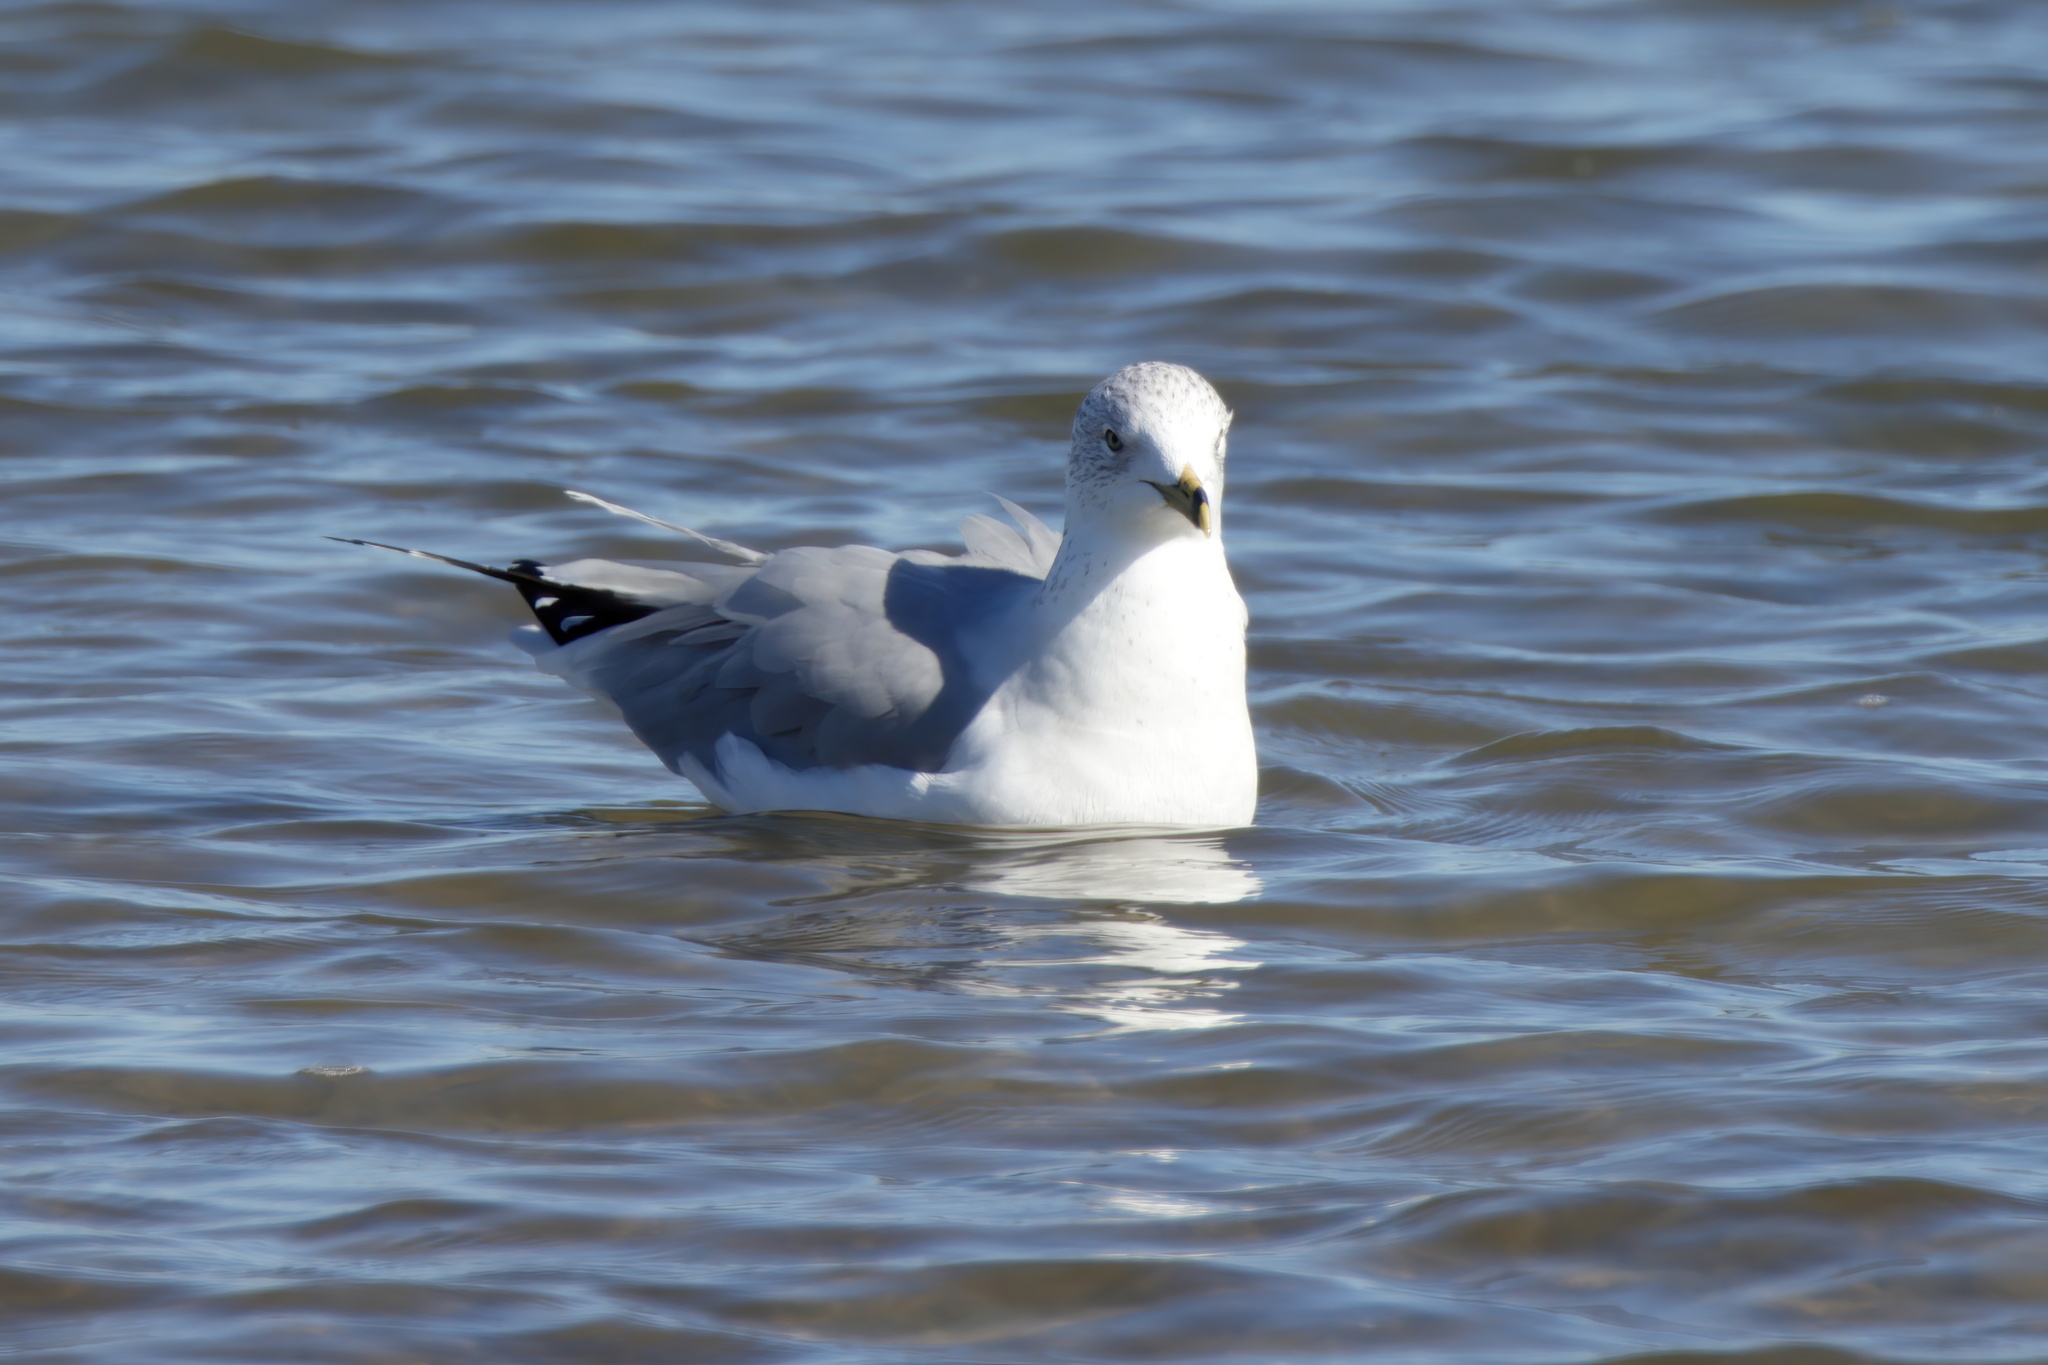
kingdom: Animalia
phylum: Chordata
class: Aves
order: Charadriiformes
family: Laridae
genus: Larus
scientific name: Larus delawarensis
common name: Ring-billed gull
